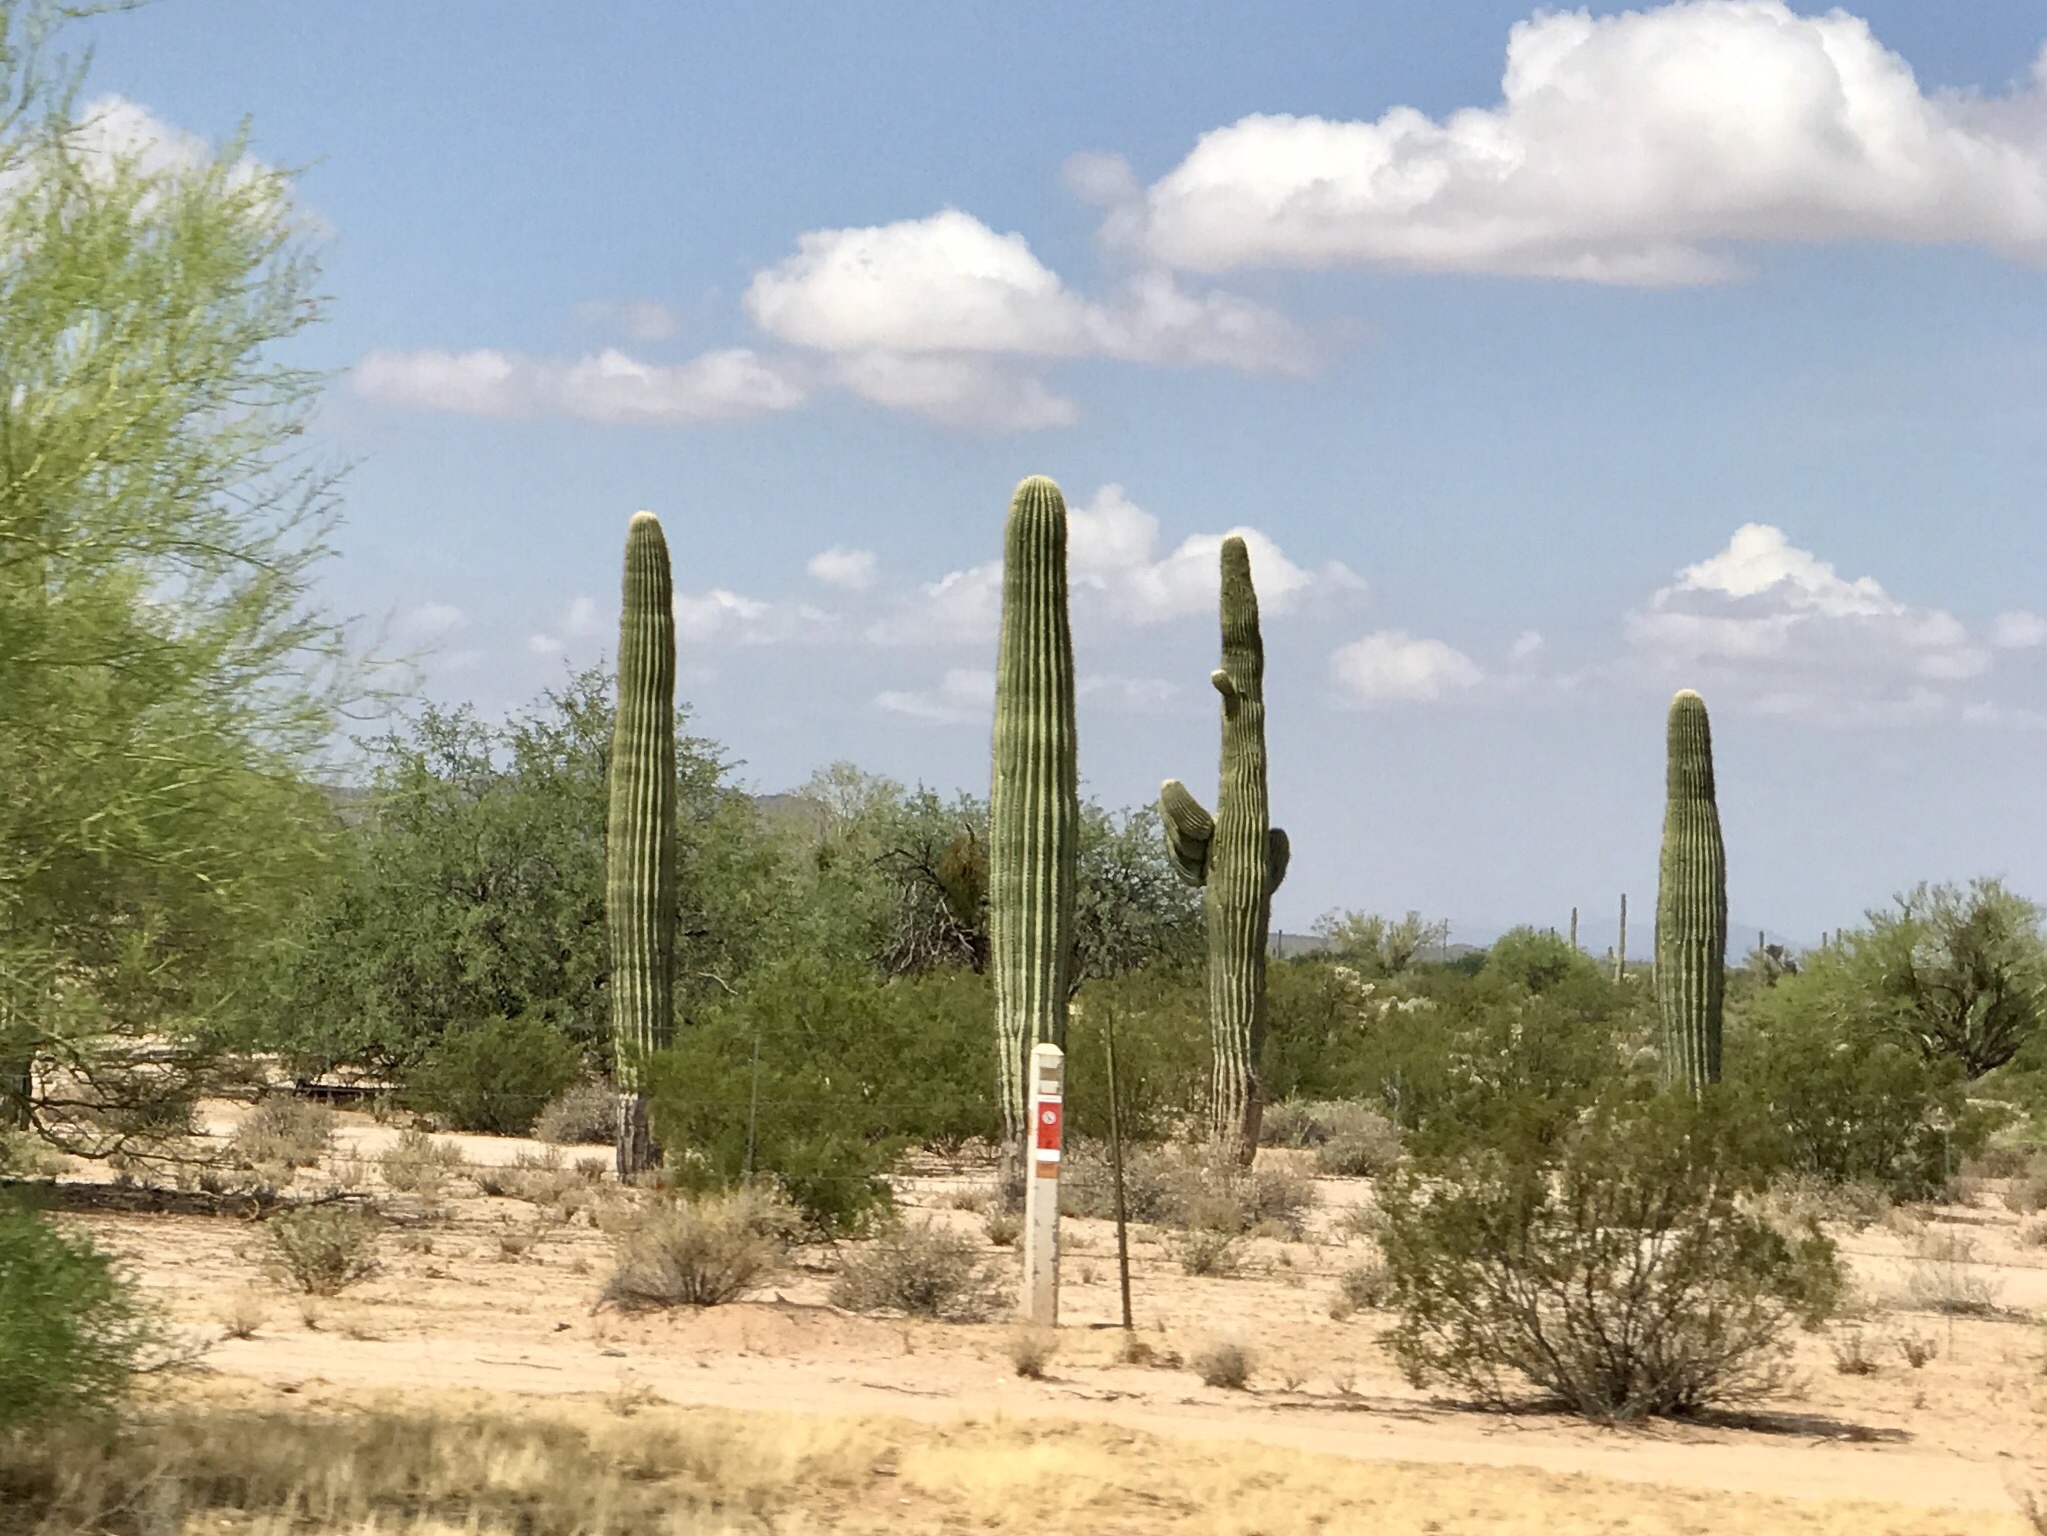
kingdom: Plantae
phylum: Tracheophyta
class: Magnoliopsida
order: Caryophyllales
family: Cactaceae
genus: Carnegiea
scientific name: Carnegiea gigantea
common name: Saguaro
